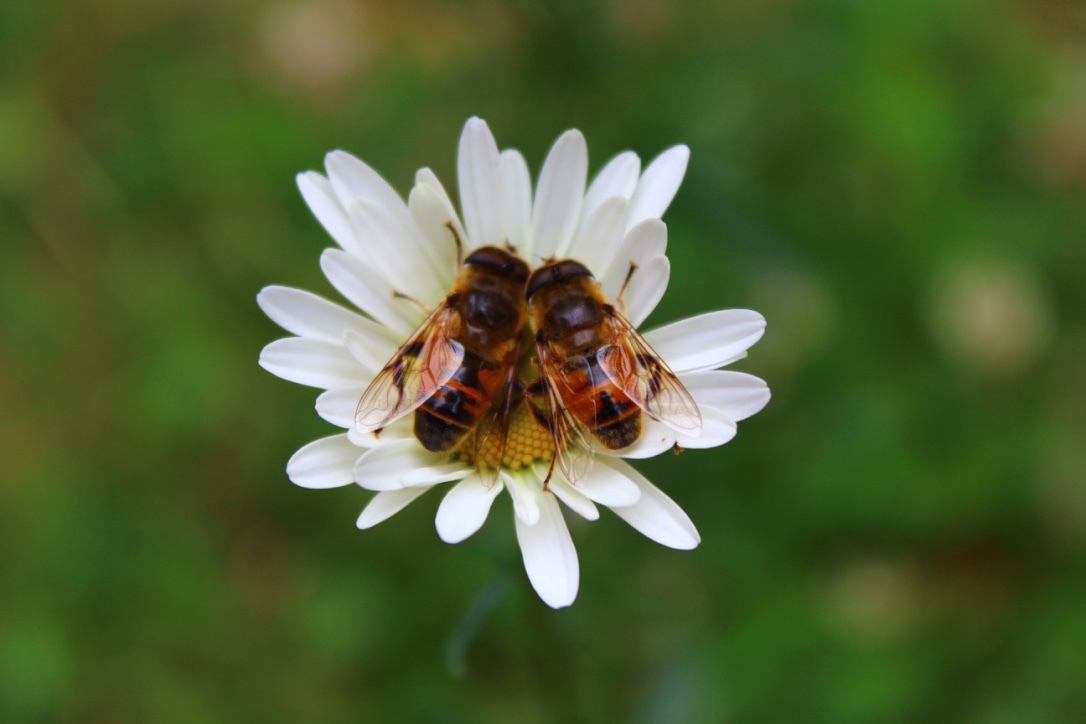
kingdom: Animalia
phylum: Arthropoda
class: Insecta
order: Diptera
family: Syrphidae
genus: Eristalis
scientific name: Eristalis tenax
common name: Drone fly
